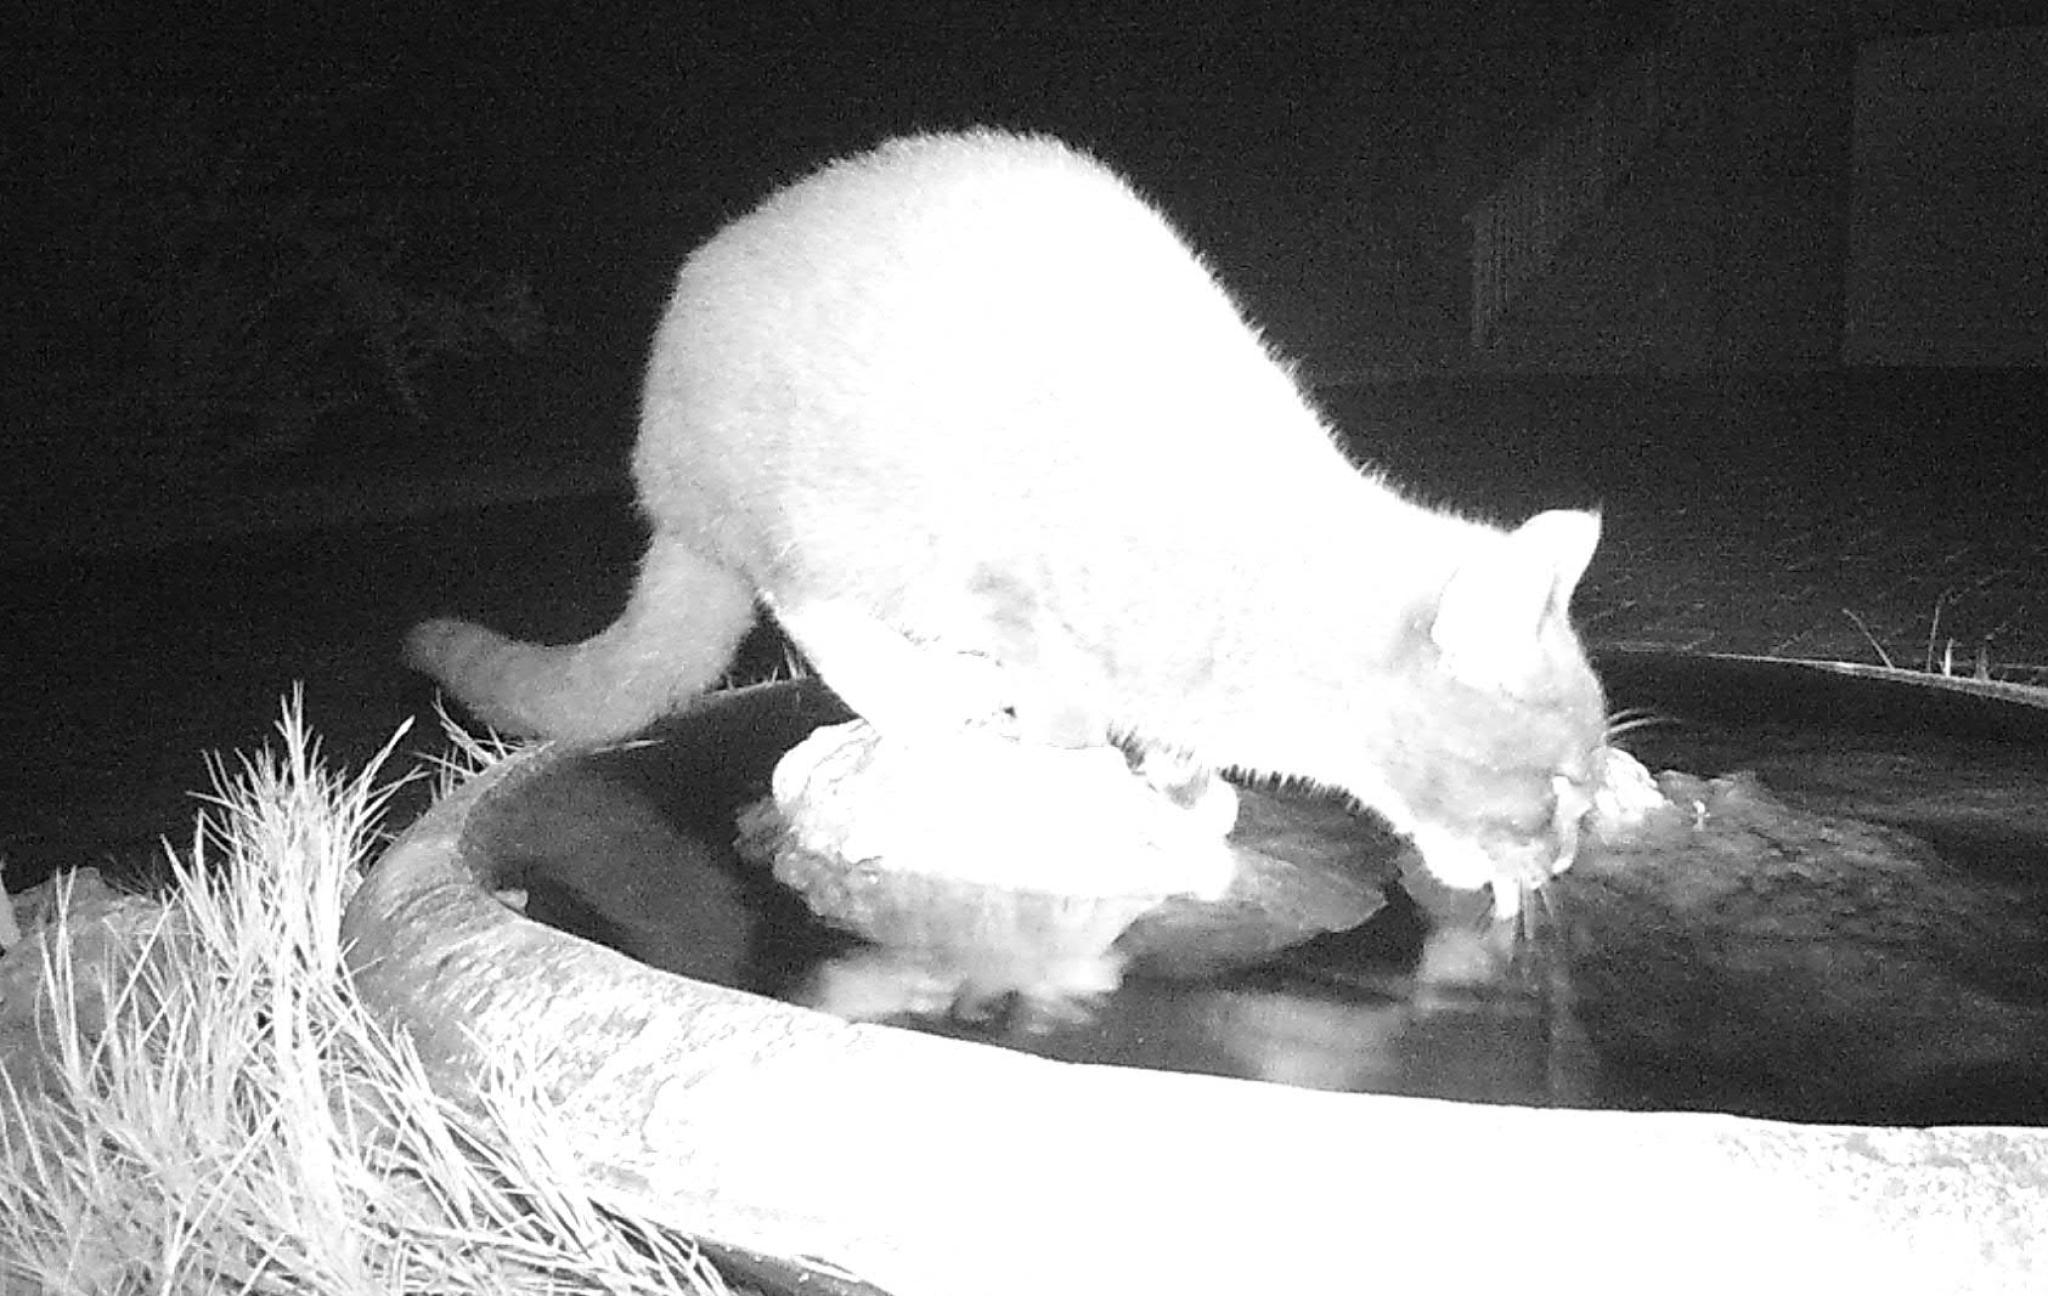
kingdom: Animalia
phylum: Chordata
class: Mammalia
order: Carnivora
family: Felidae
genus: Felis
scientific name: Felis catus
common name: Domestic cat
